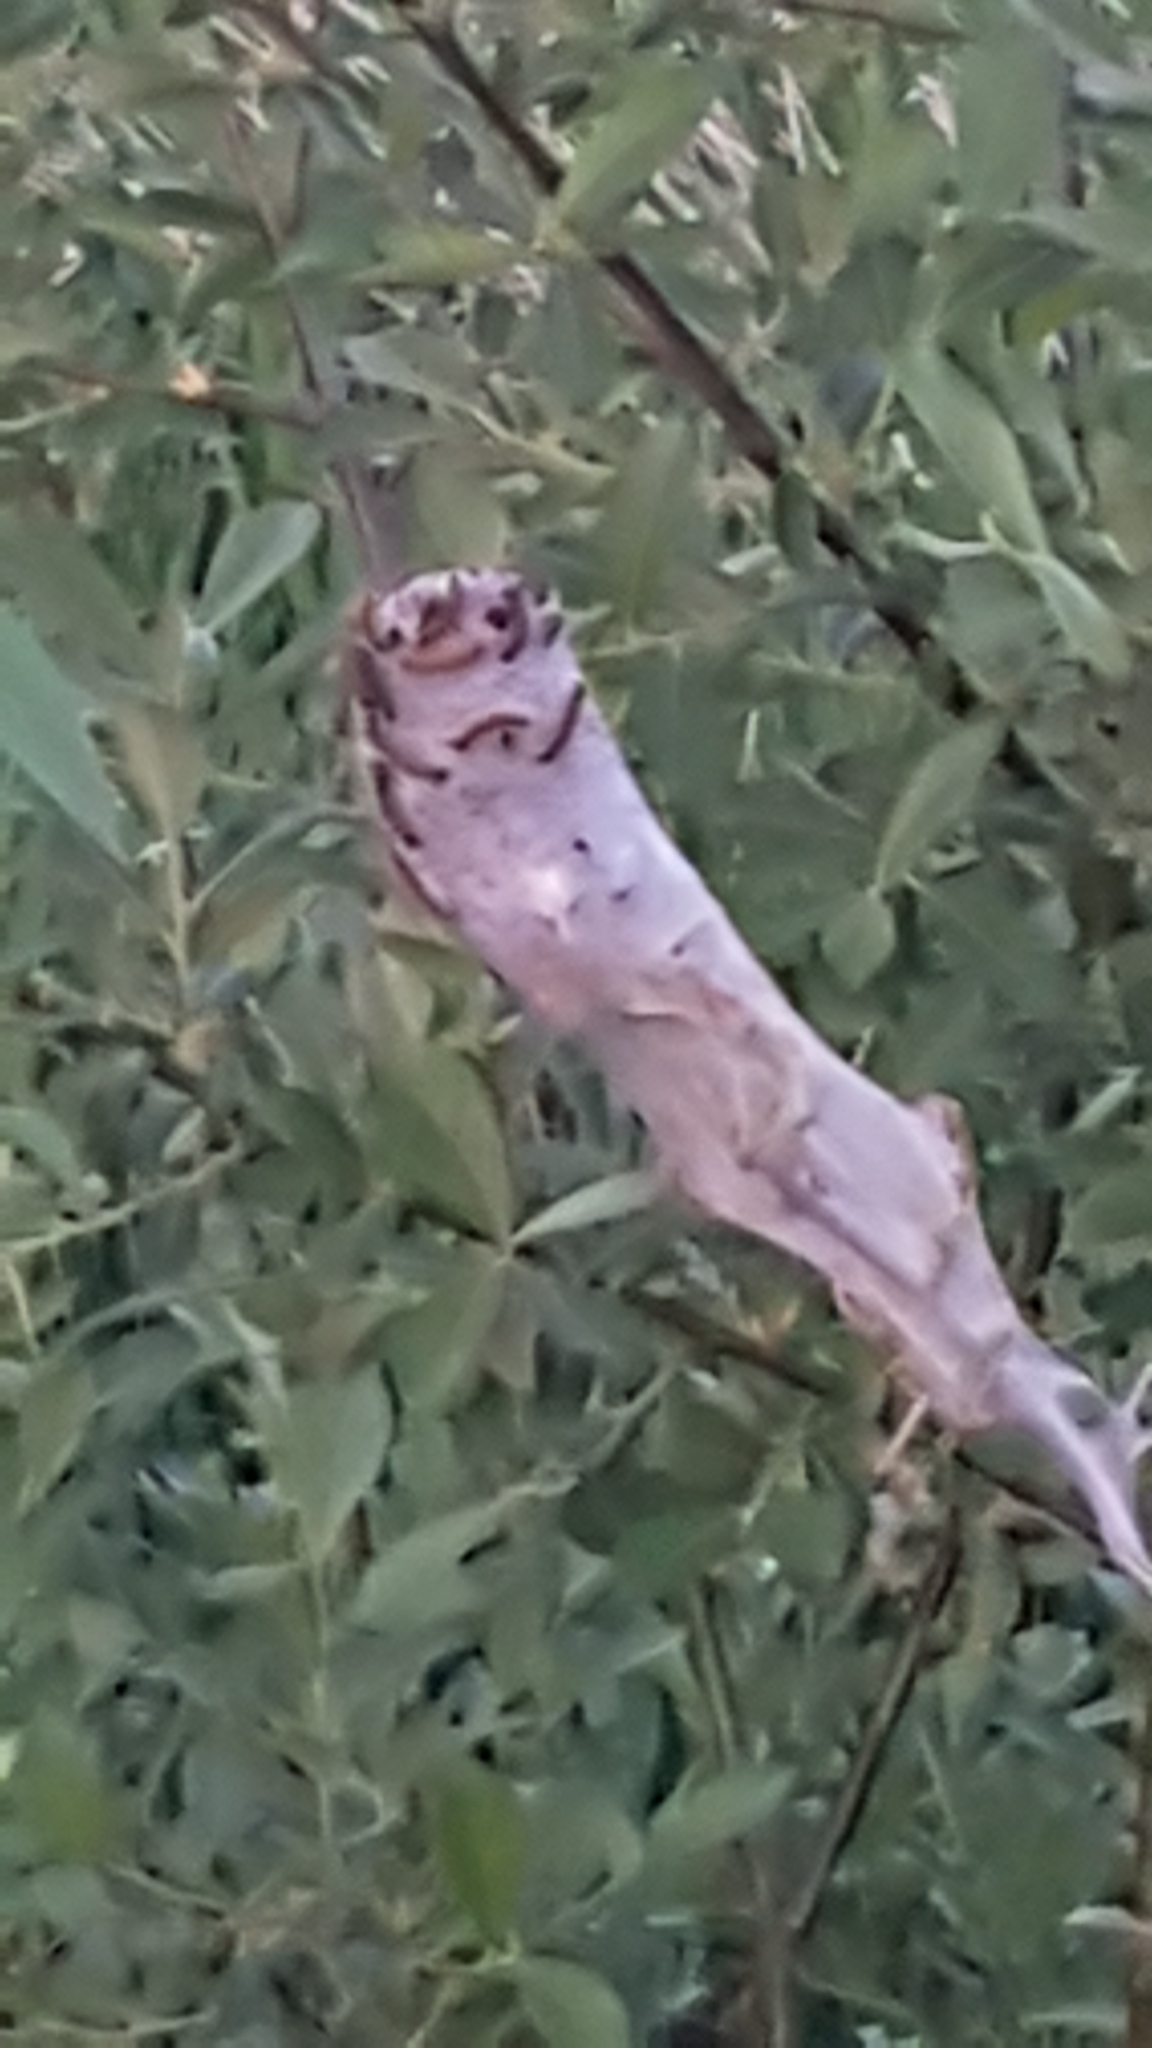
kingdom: Animalia
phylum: Arthropoda
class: Insecta
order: Lepidoptera
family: Lasiocampidae
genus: Malacosoma
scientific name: Malacosoma californica
